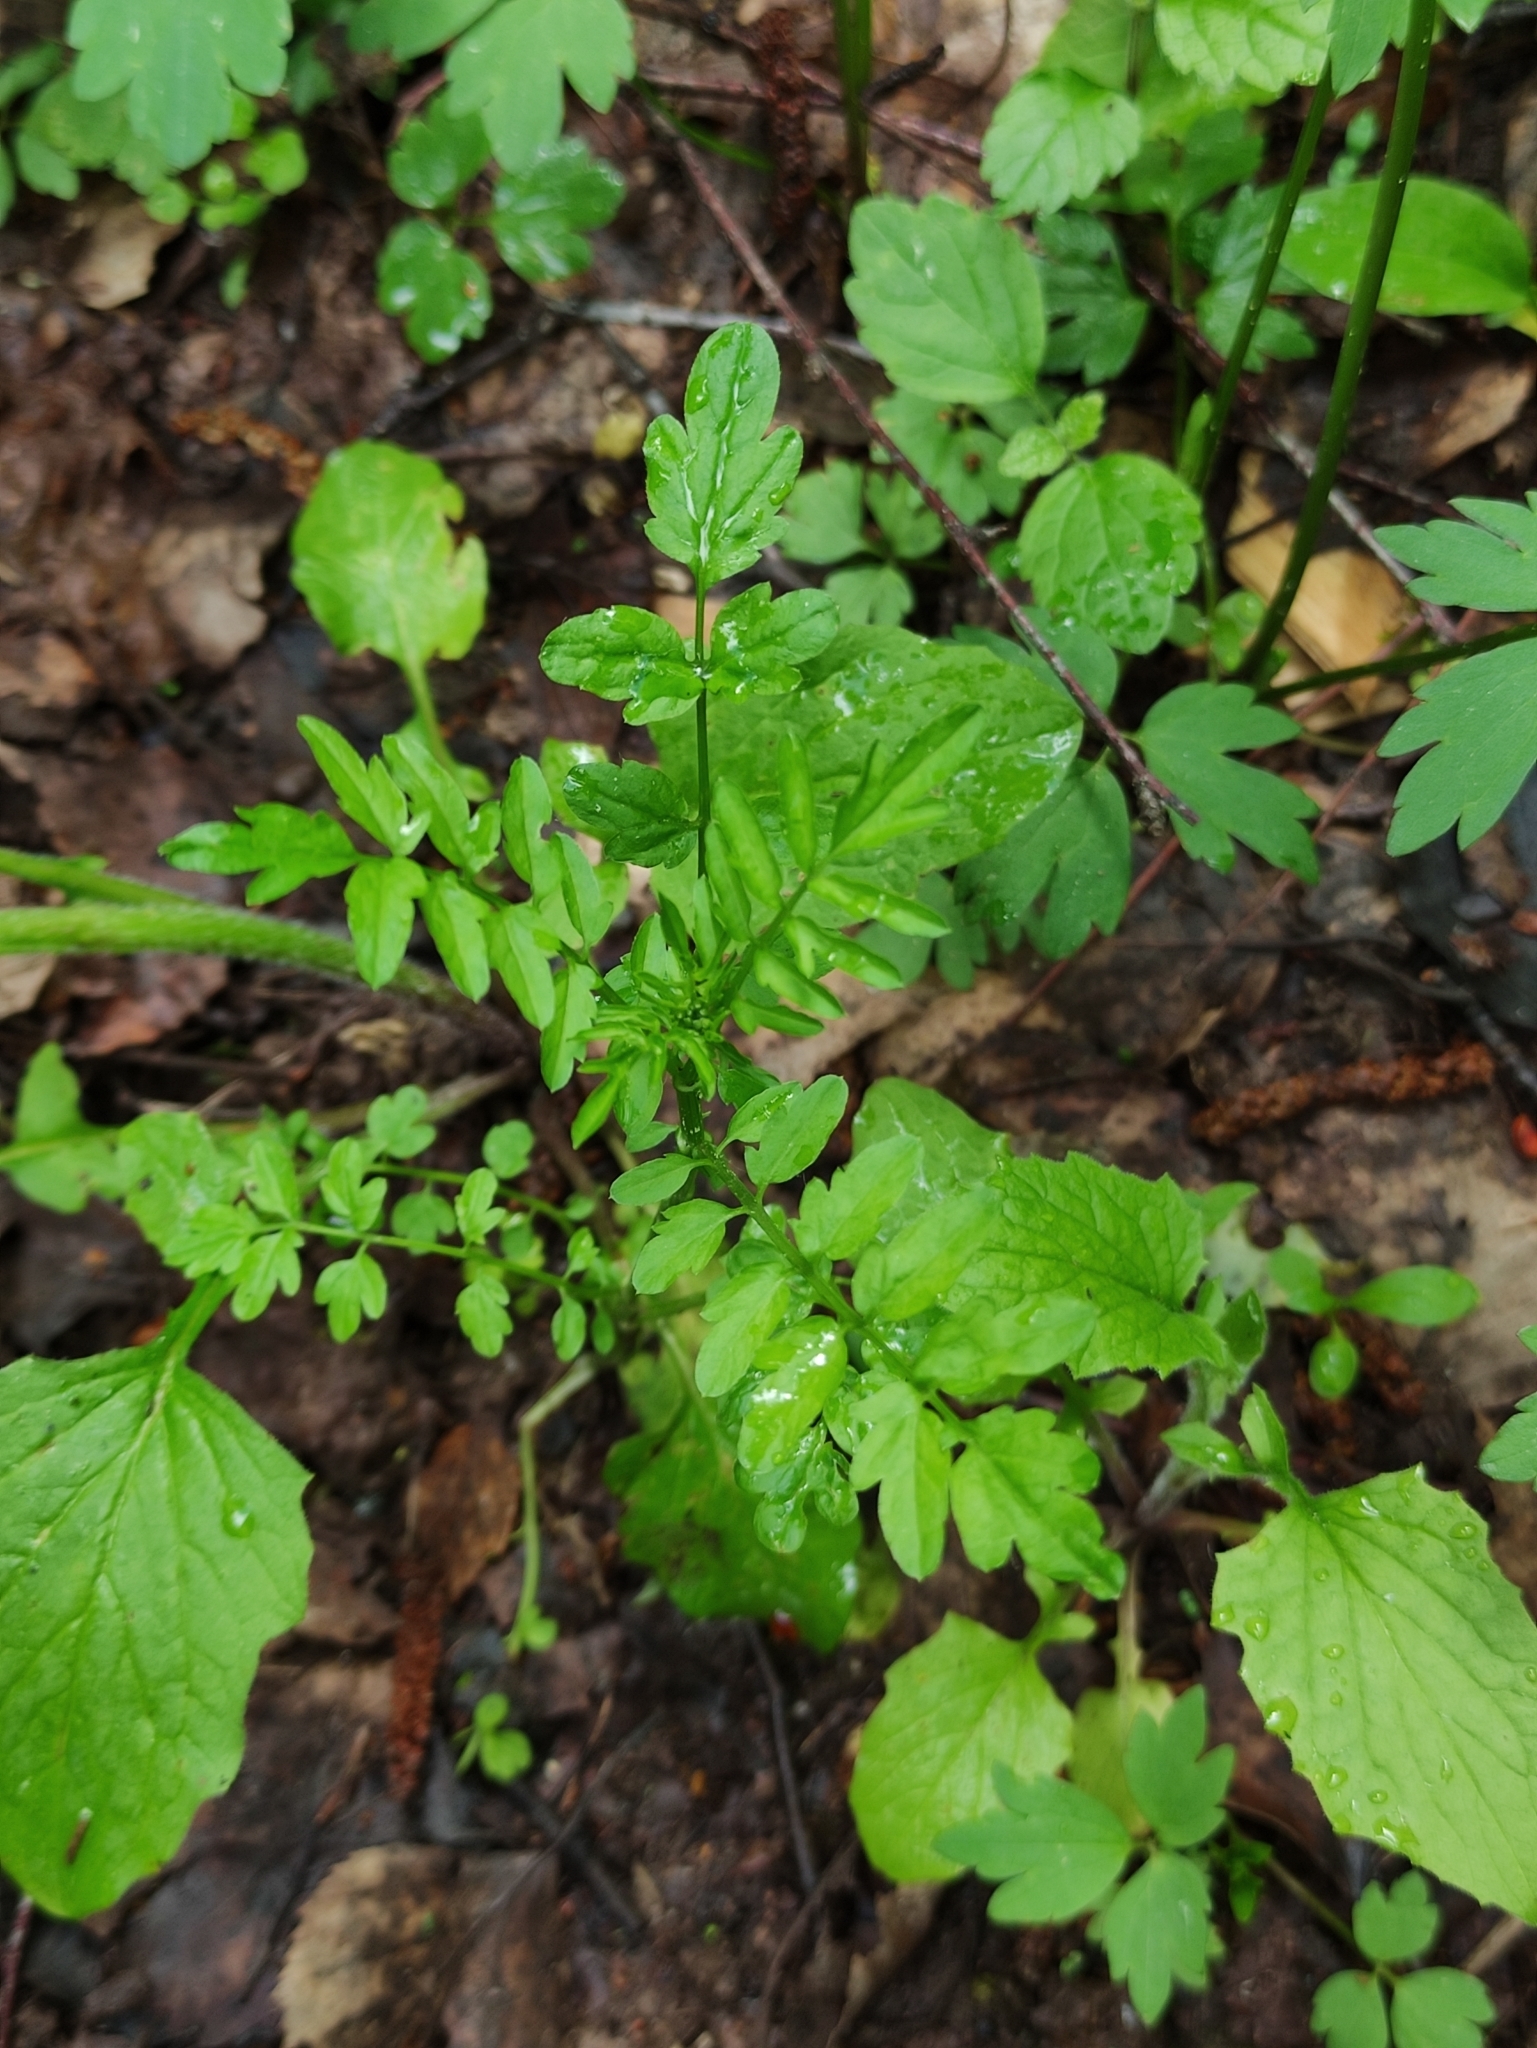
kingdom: Plantae
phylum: Tracheophyta
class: Magnoliopsida
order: Brassicales
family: Brassicaceae
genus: Cardamine
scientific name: Cardamine impatiens
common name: Narrow-leaved bitter-cress
